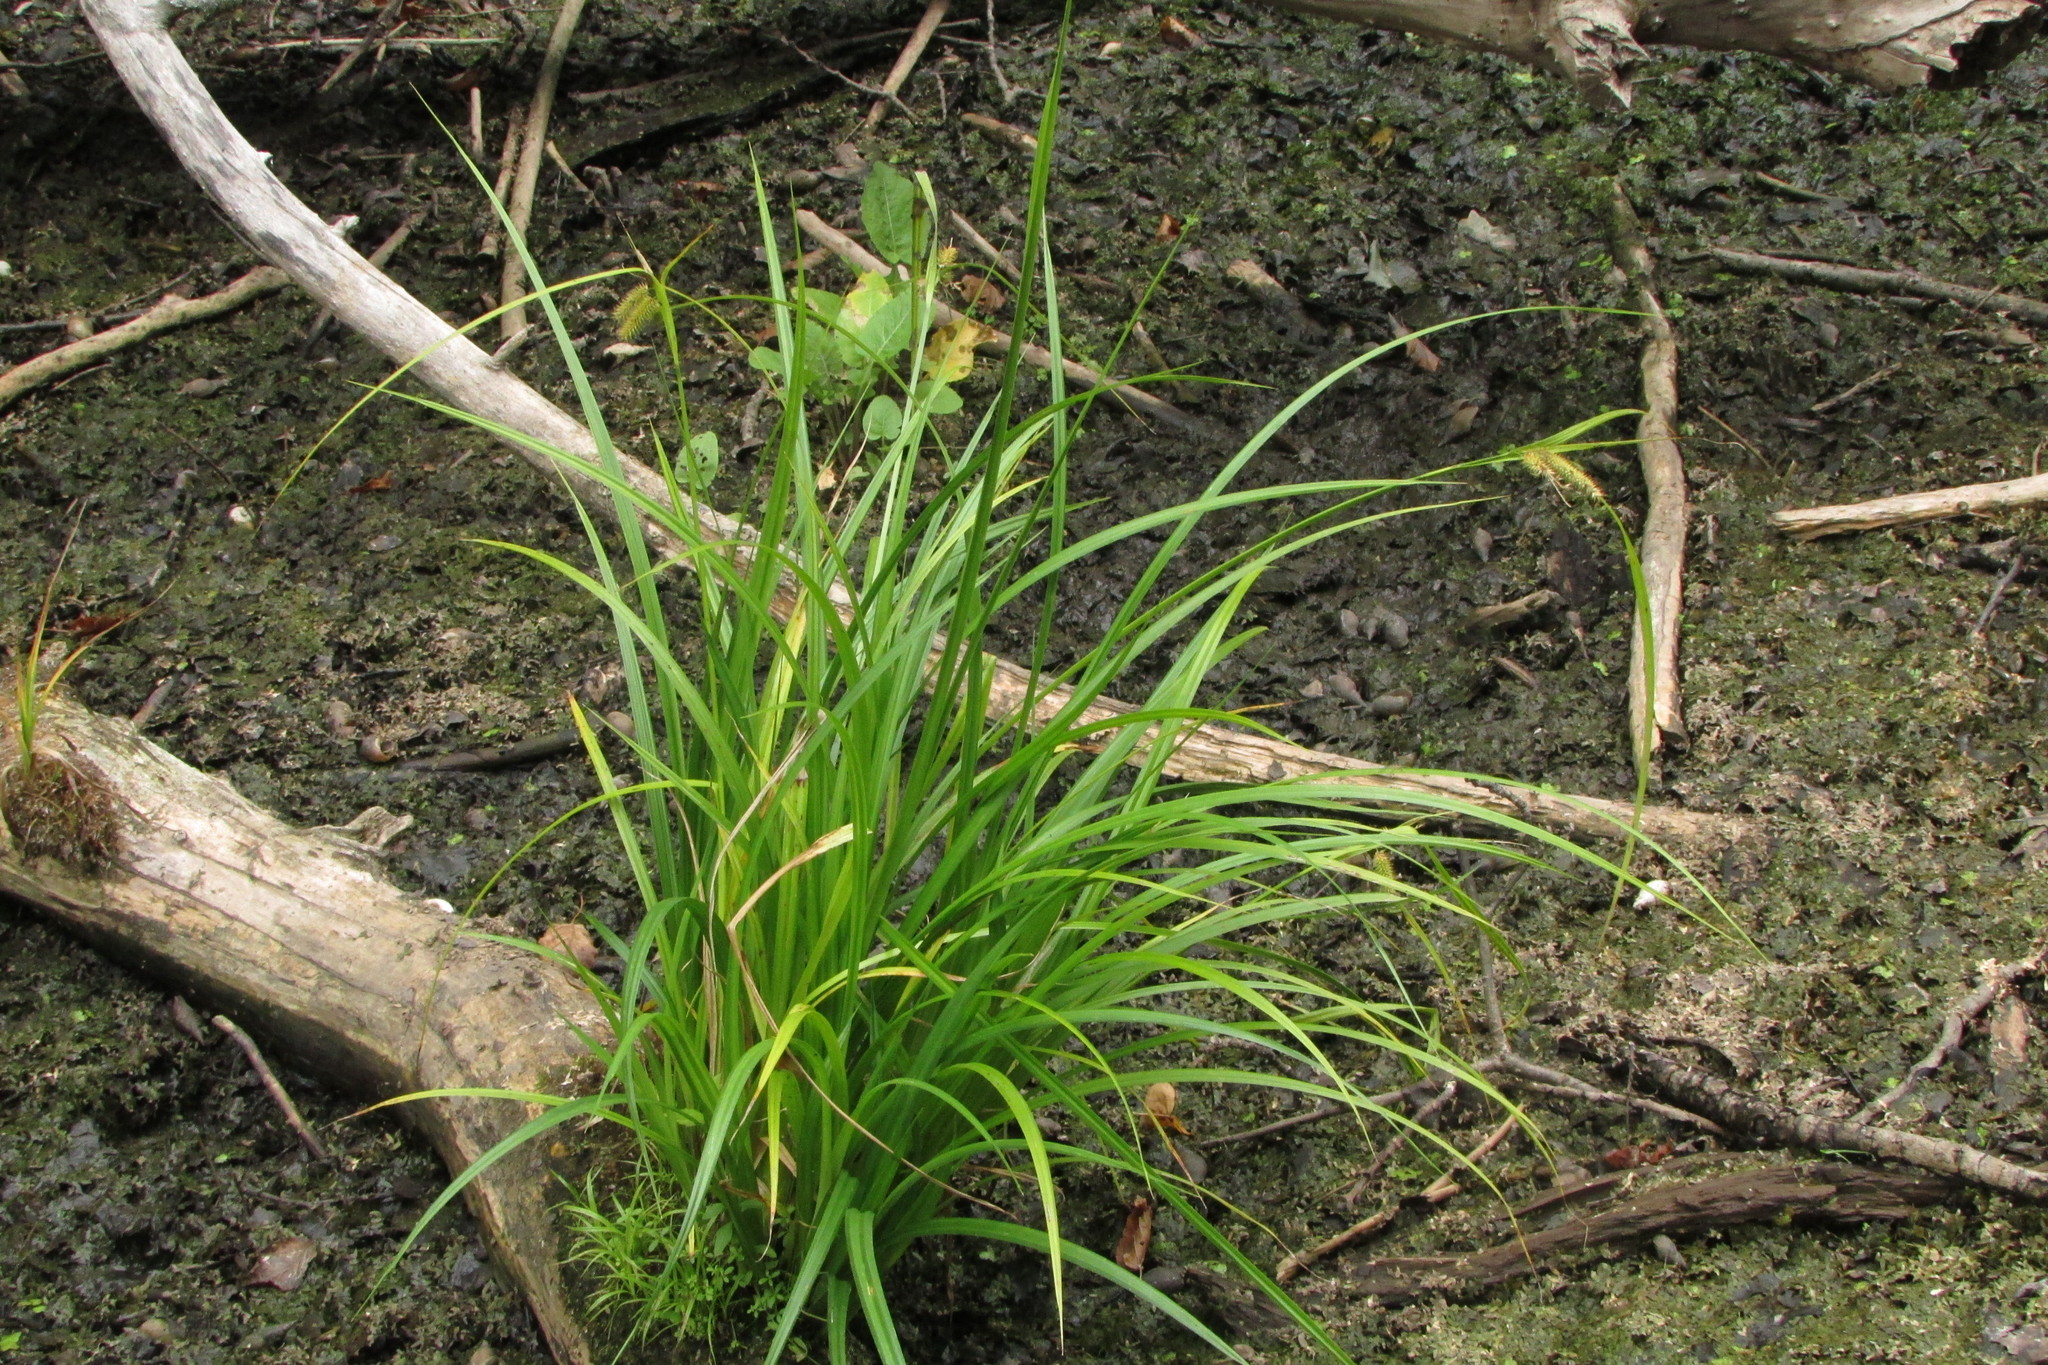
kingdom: Plantae
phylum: Tracheophyta
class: Liliopsida
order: Poales
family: Cyperaceae
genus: Carex
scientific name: Carex pseudocyperus
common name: Cyperus sedge
